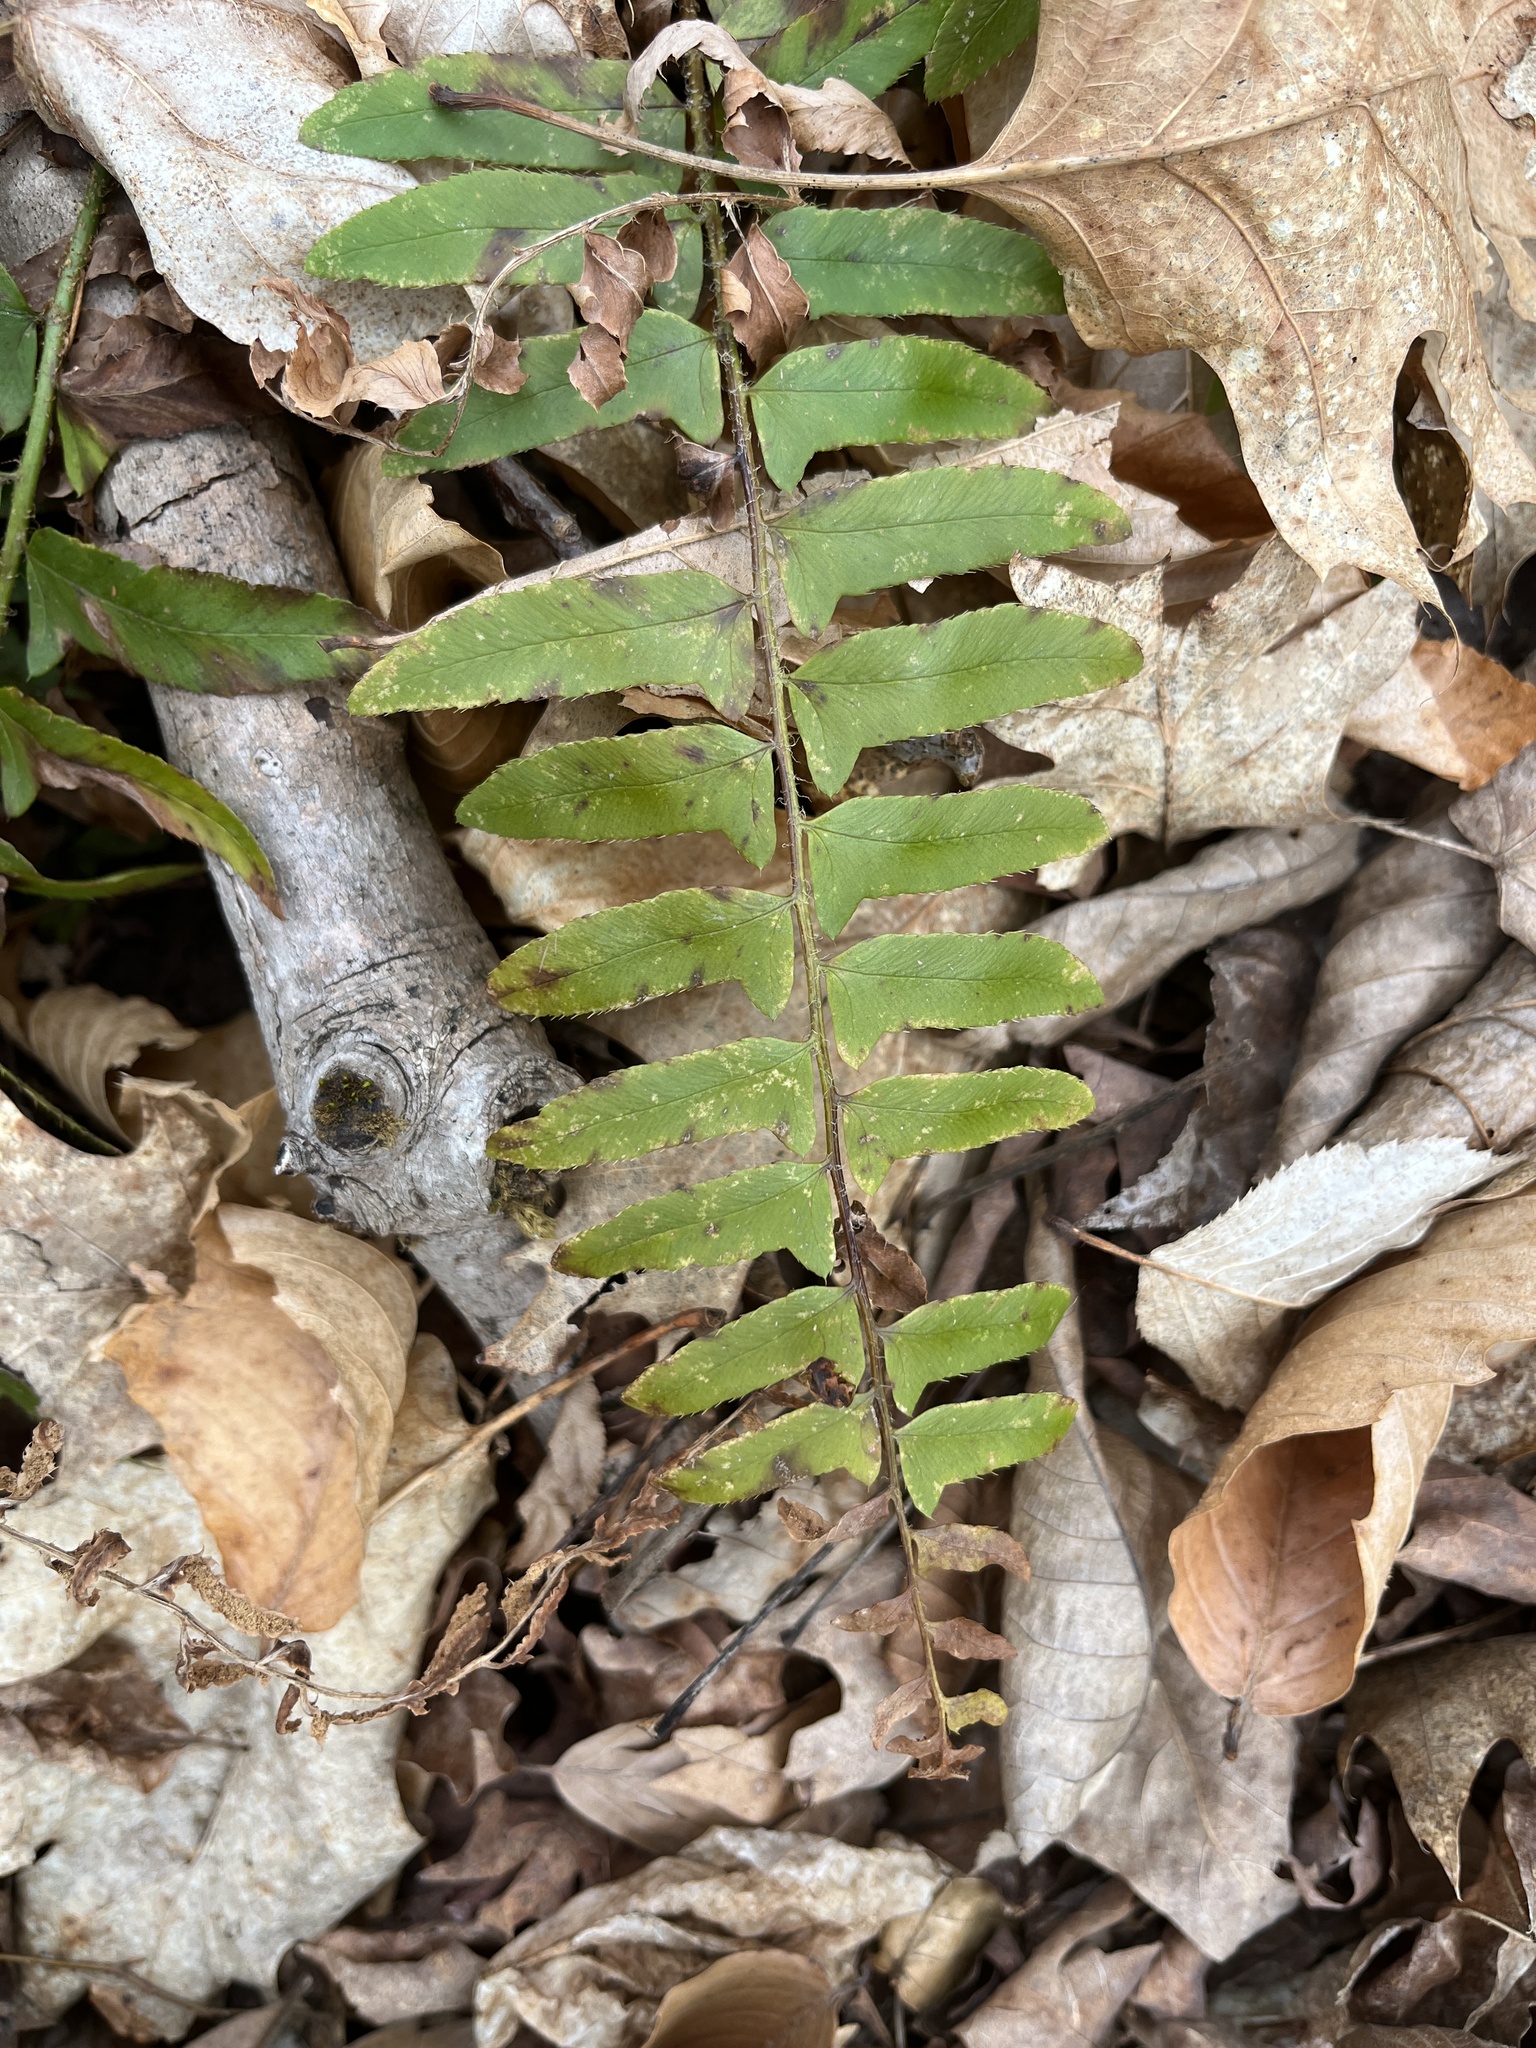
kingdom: Plantae
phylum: Tracheophyta
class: Polypodiopsida
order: Polypodiales
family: Dryopteridaceae
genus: Polystichum
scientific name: Polystichum acrostichoides
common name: Christmas fern
